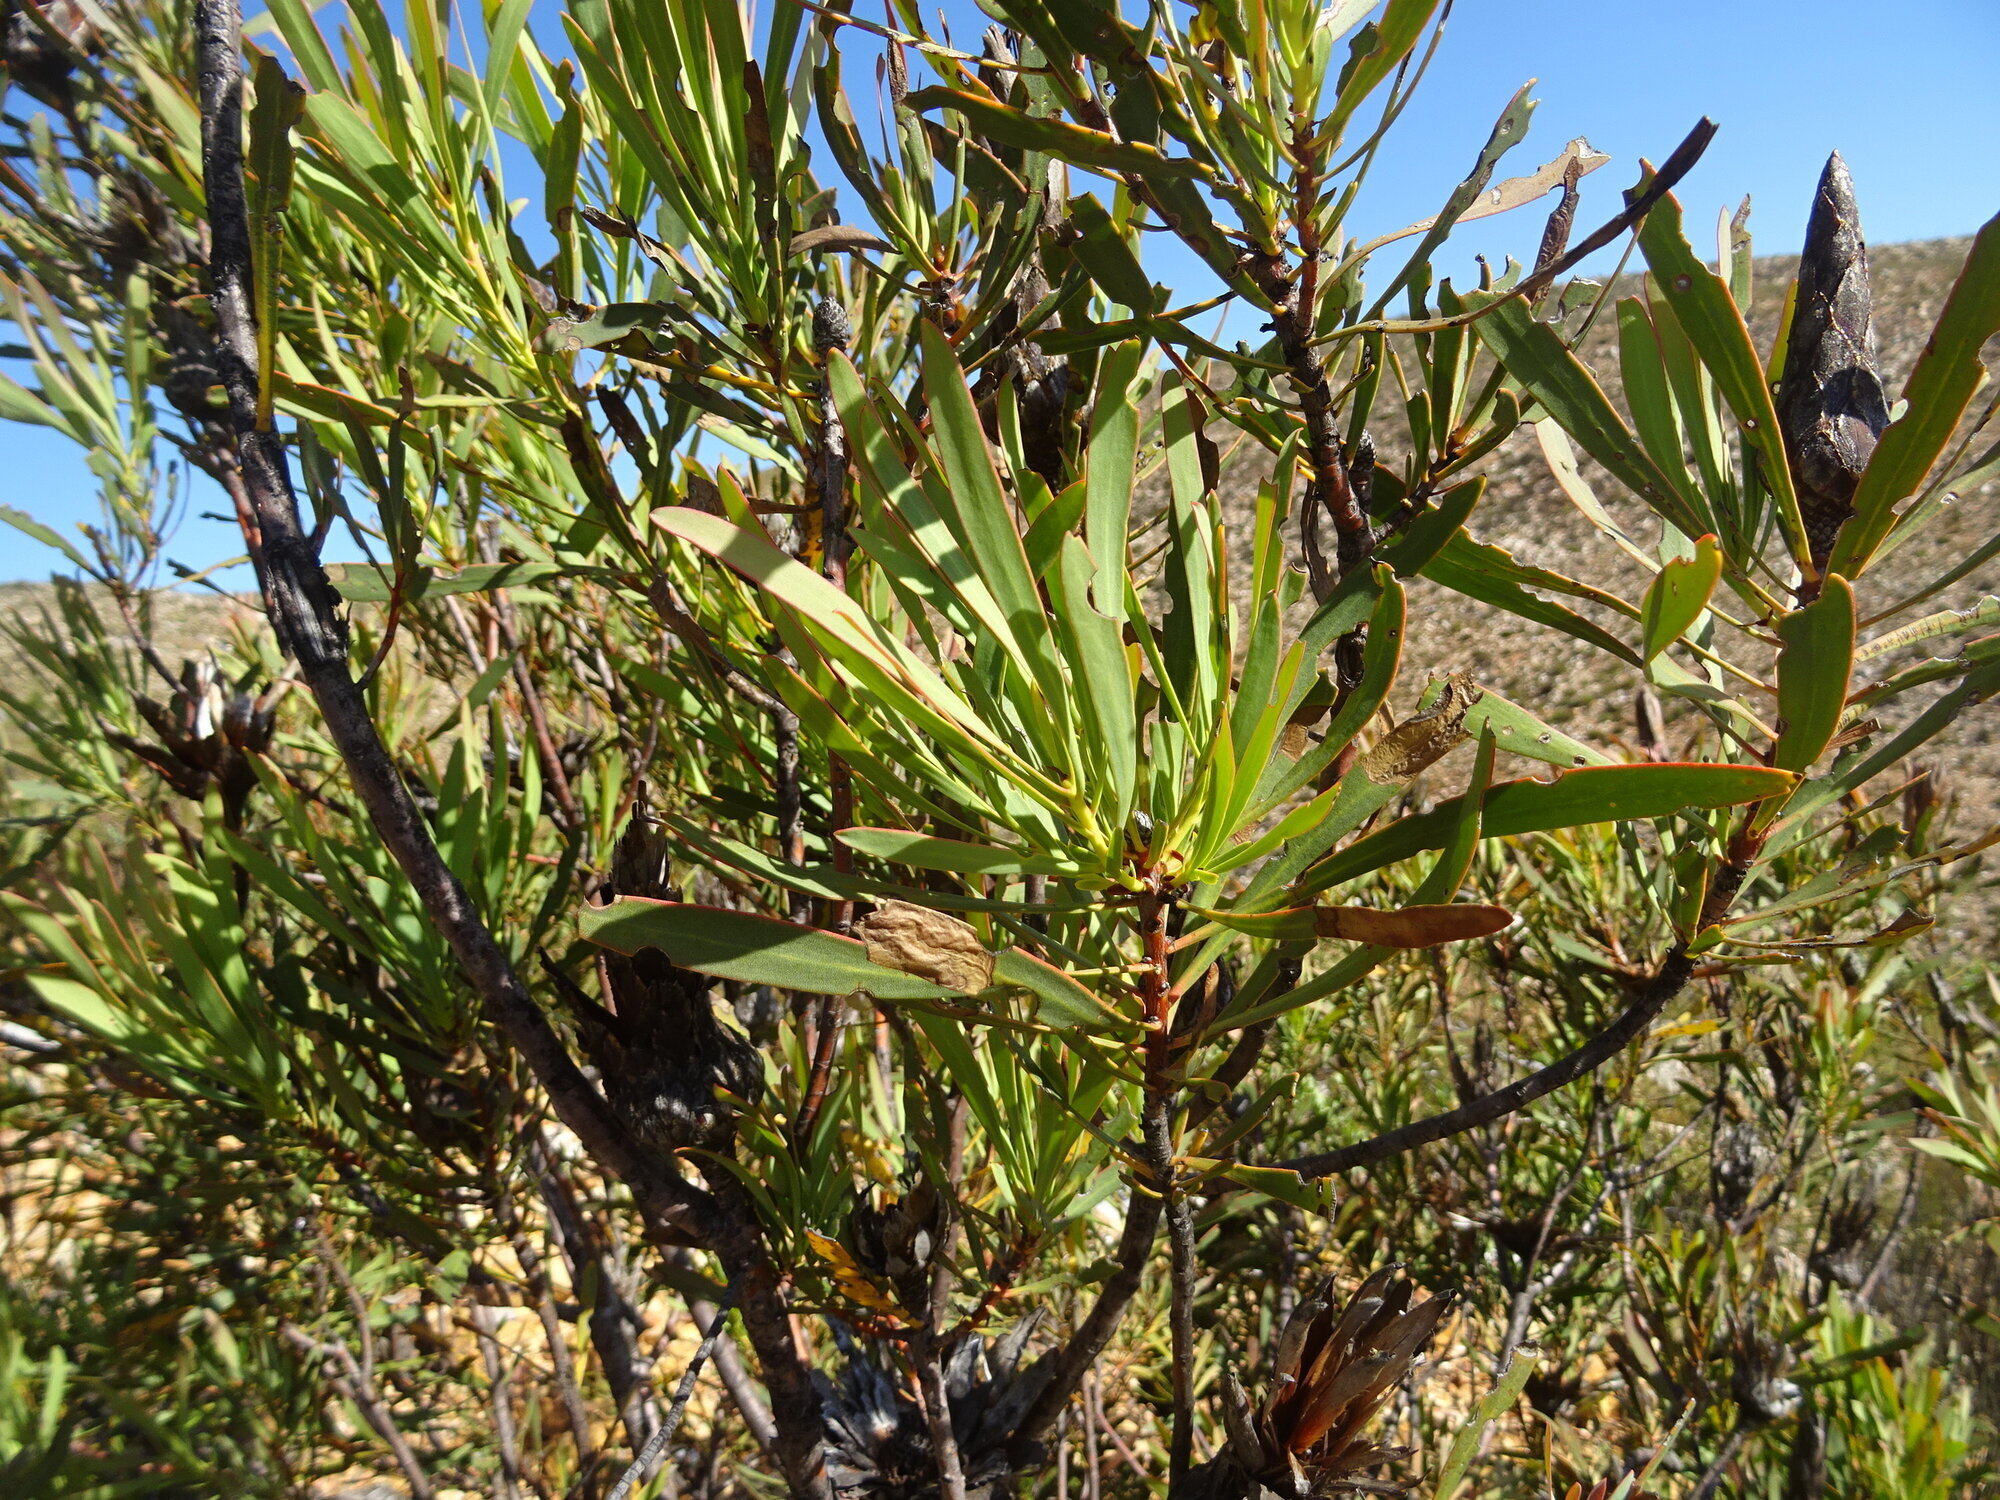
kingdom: Plantae
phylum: Tracheophyta
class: Magnoliopsida
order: Proteales
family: Proteaceae
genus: Protea
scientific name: Protea repens
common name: Sugarbush
